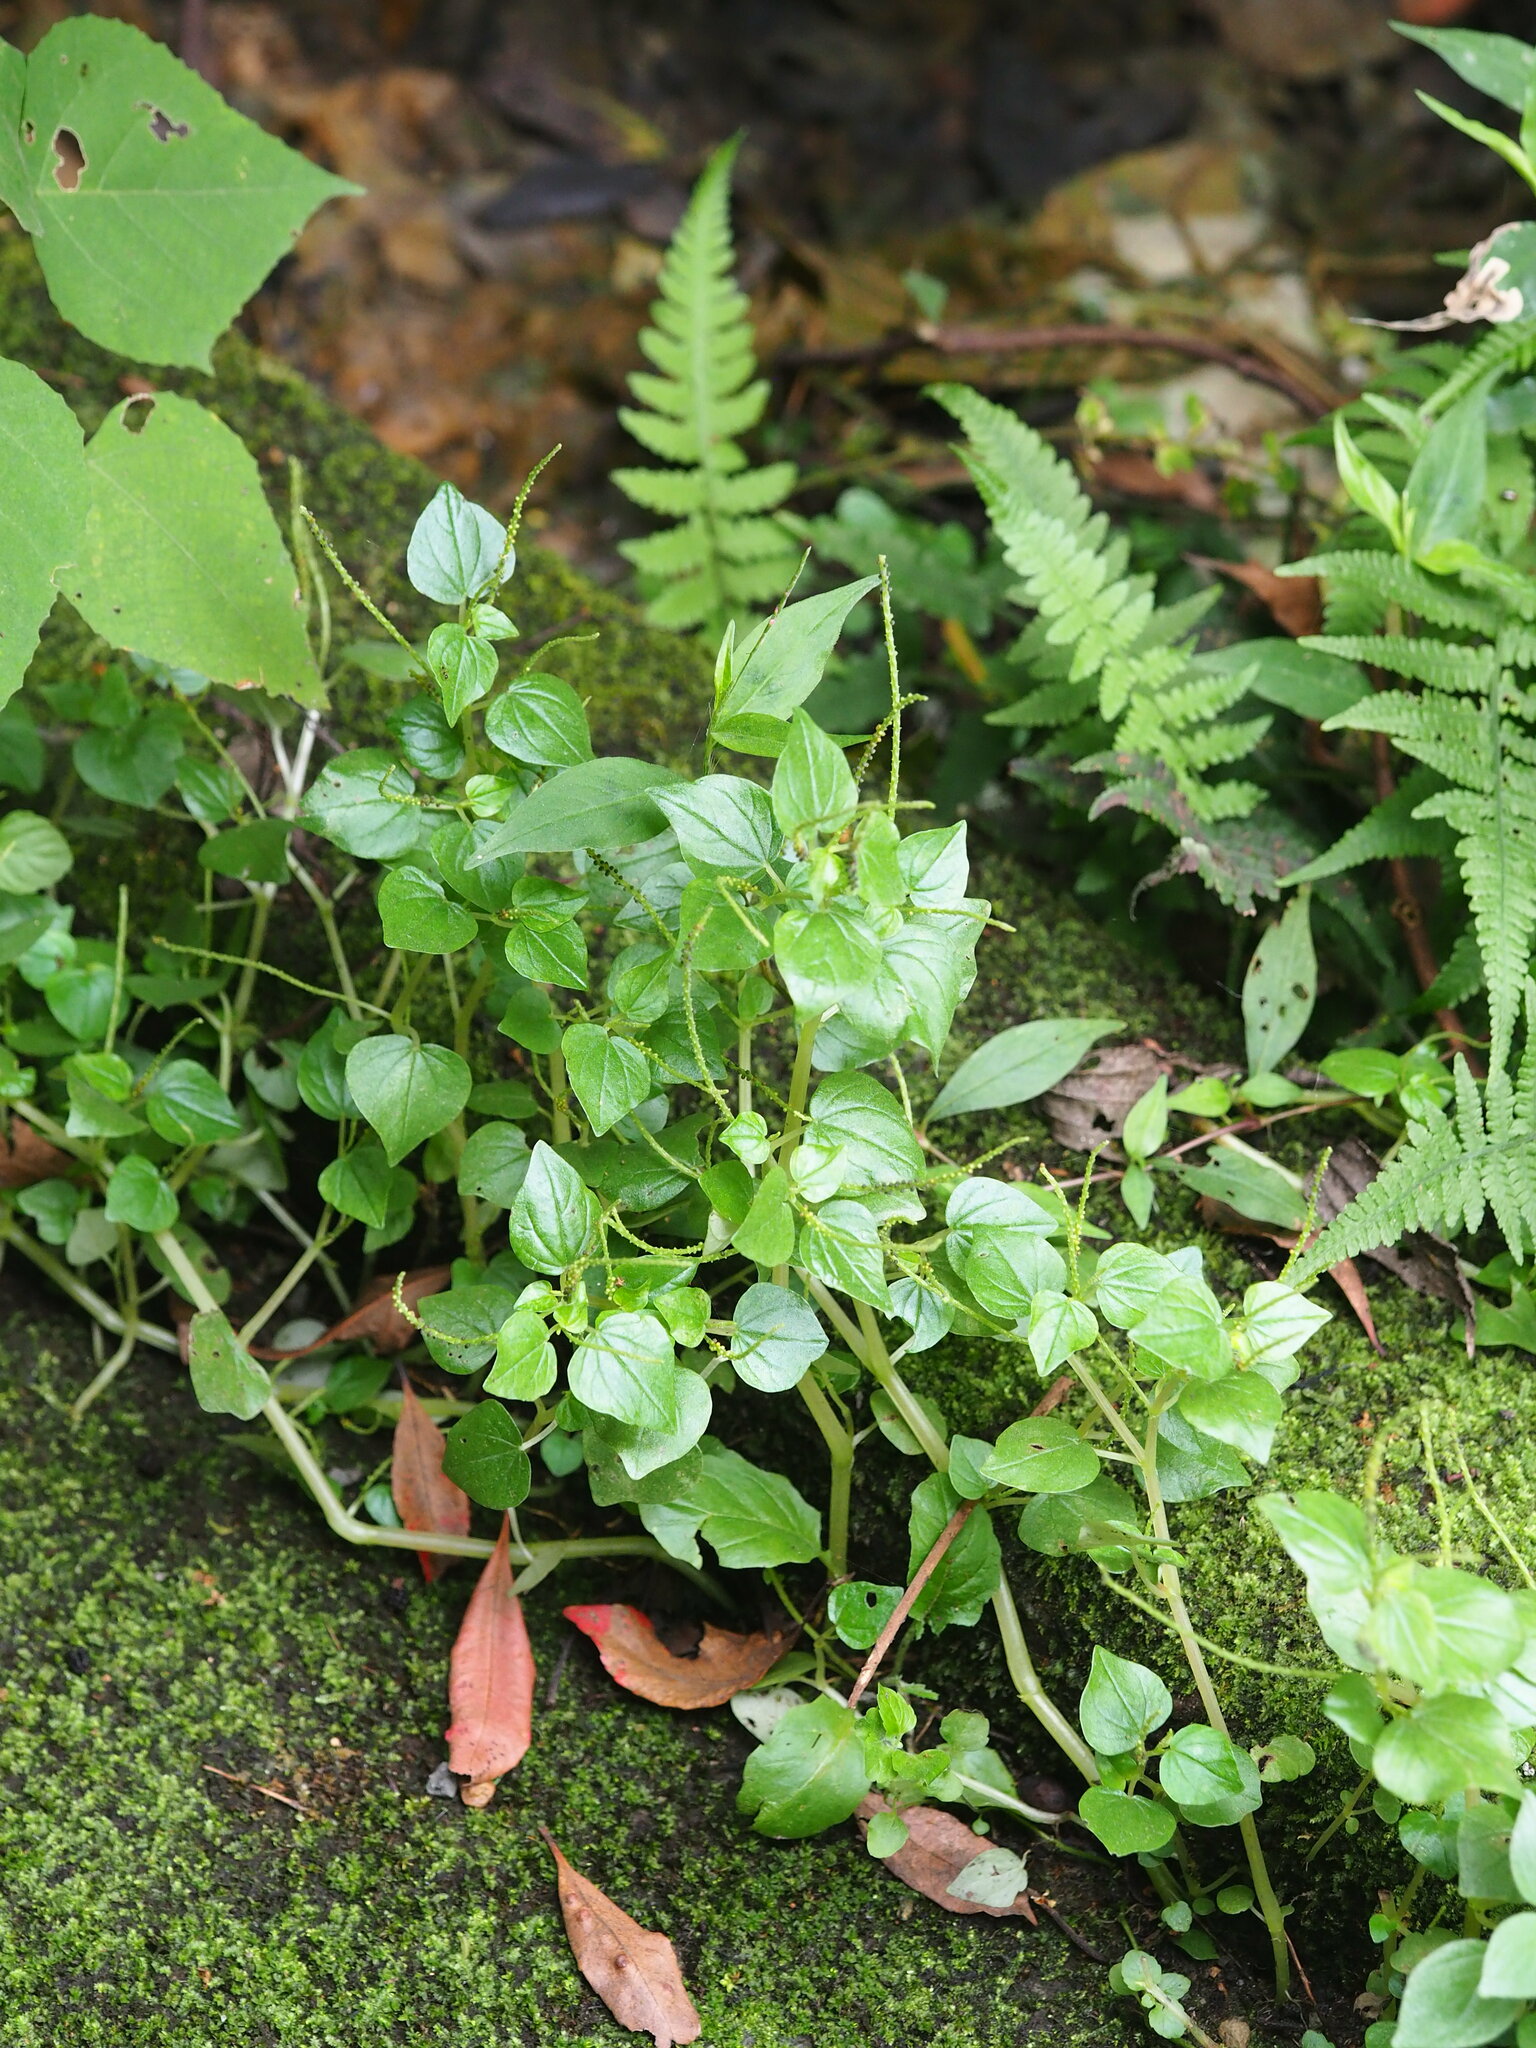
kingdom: Plantae
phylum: Tracheophyta
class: Magnoliopsida
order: Piperales
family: Piperaceae
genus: Peperomia
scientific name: Peperomia pellucida
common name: Man to man
